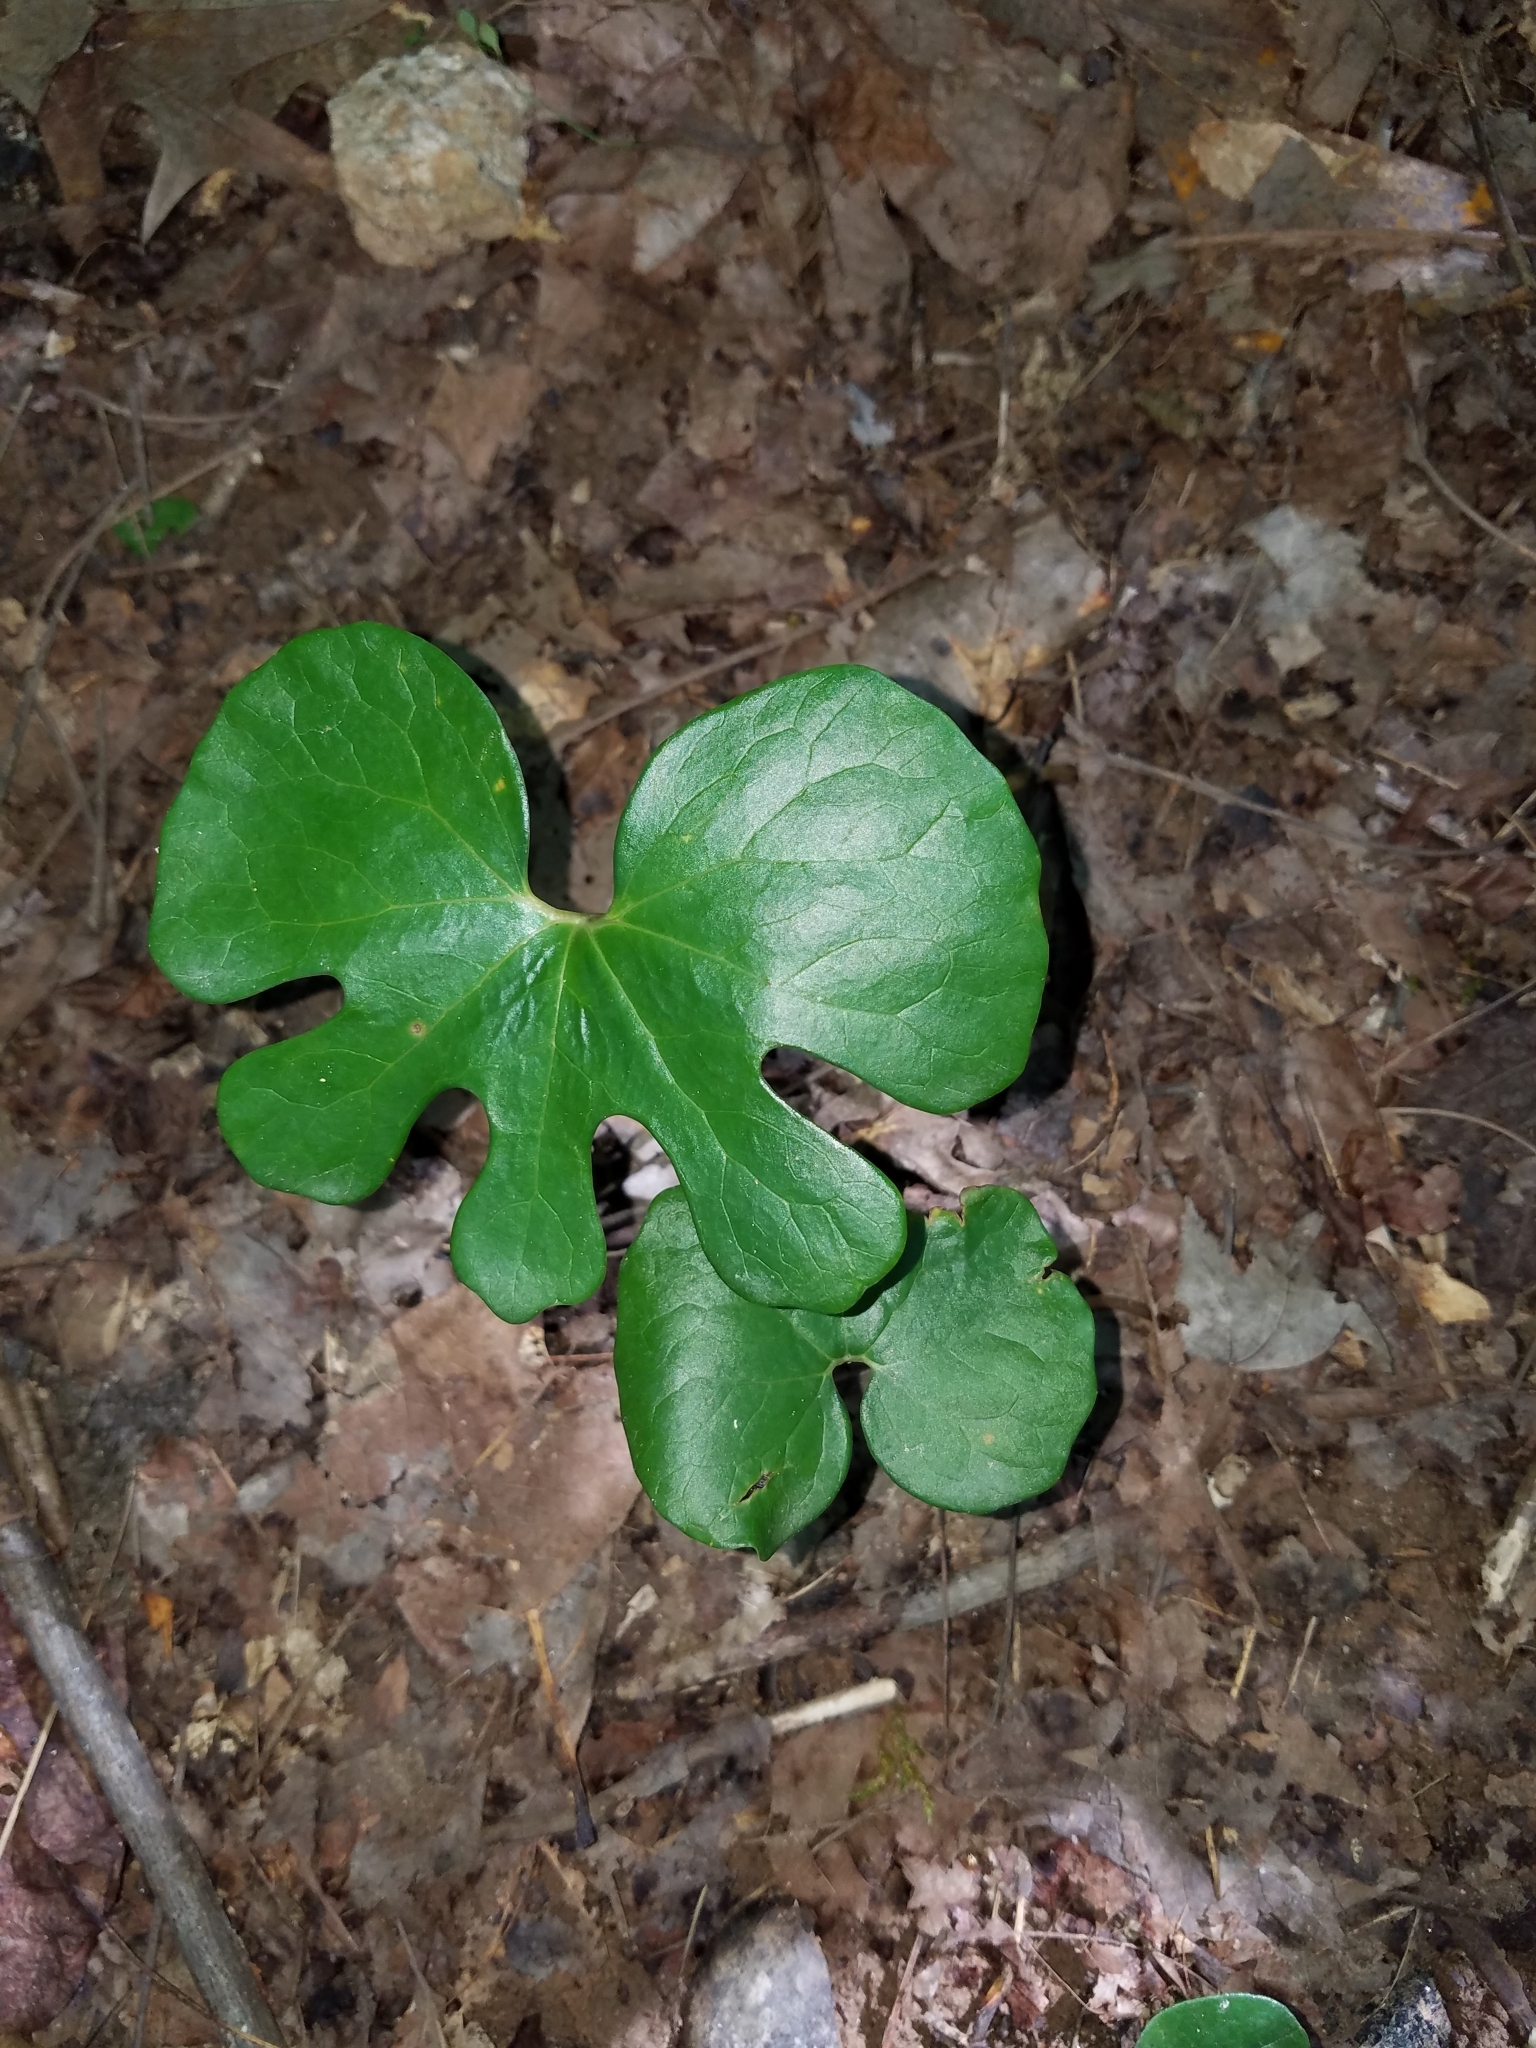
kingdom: Plantae
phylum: Tracheophyta
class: Magnoliopsida
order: Ranunculales
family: Papaveraceae
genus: Sanguinaria
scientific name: Sanguinaria canadensis
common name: Bloodroot
